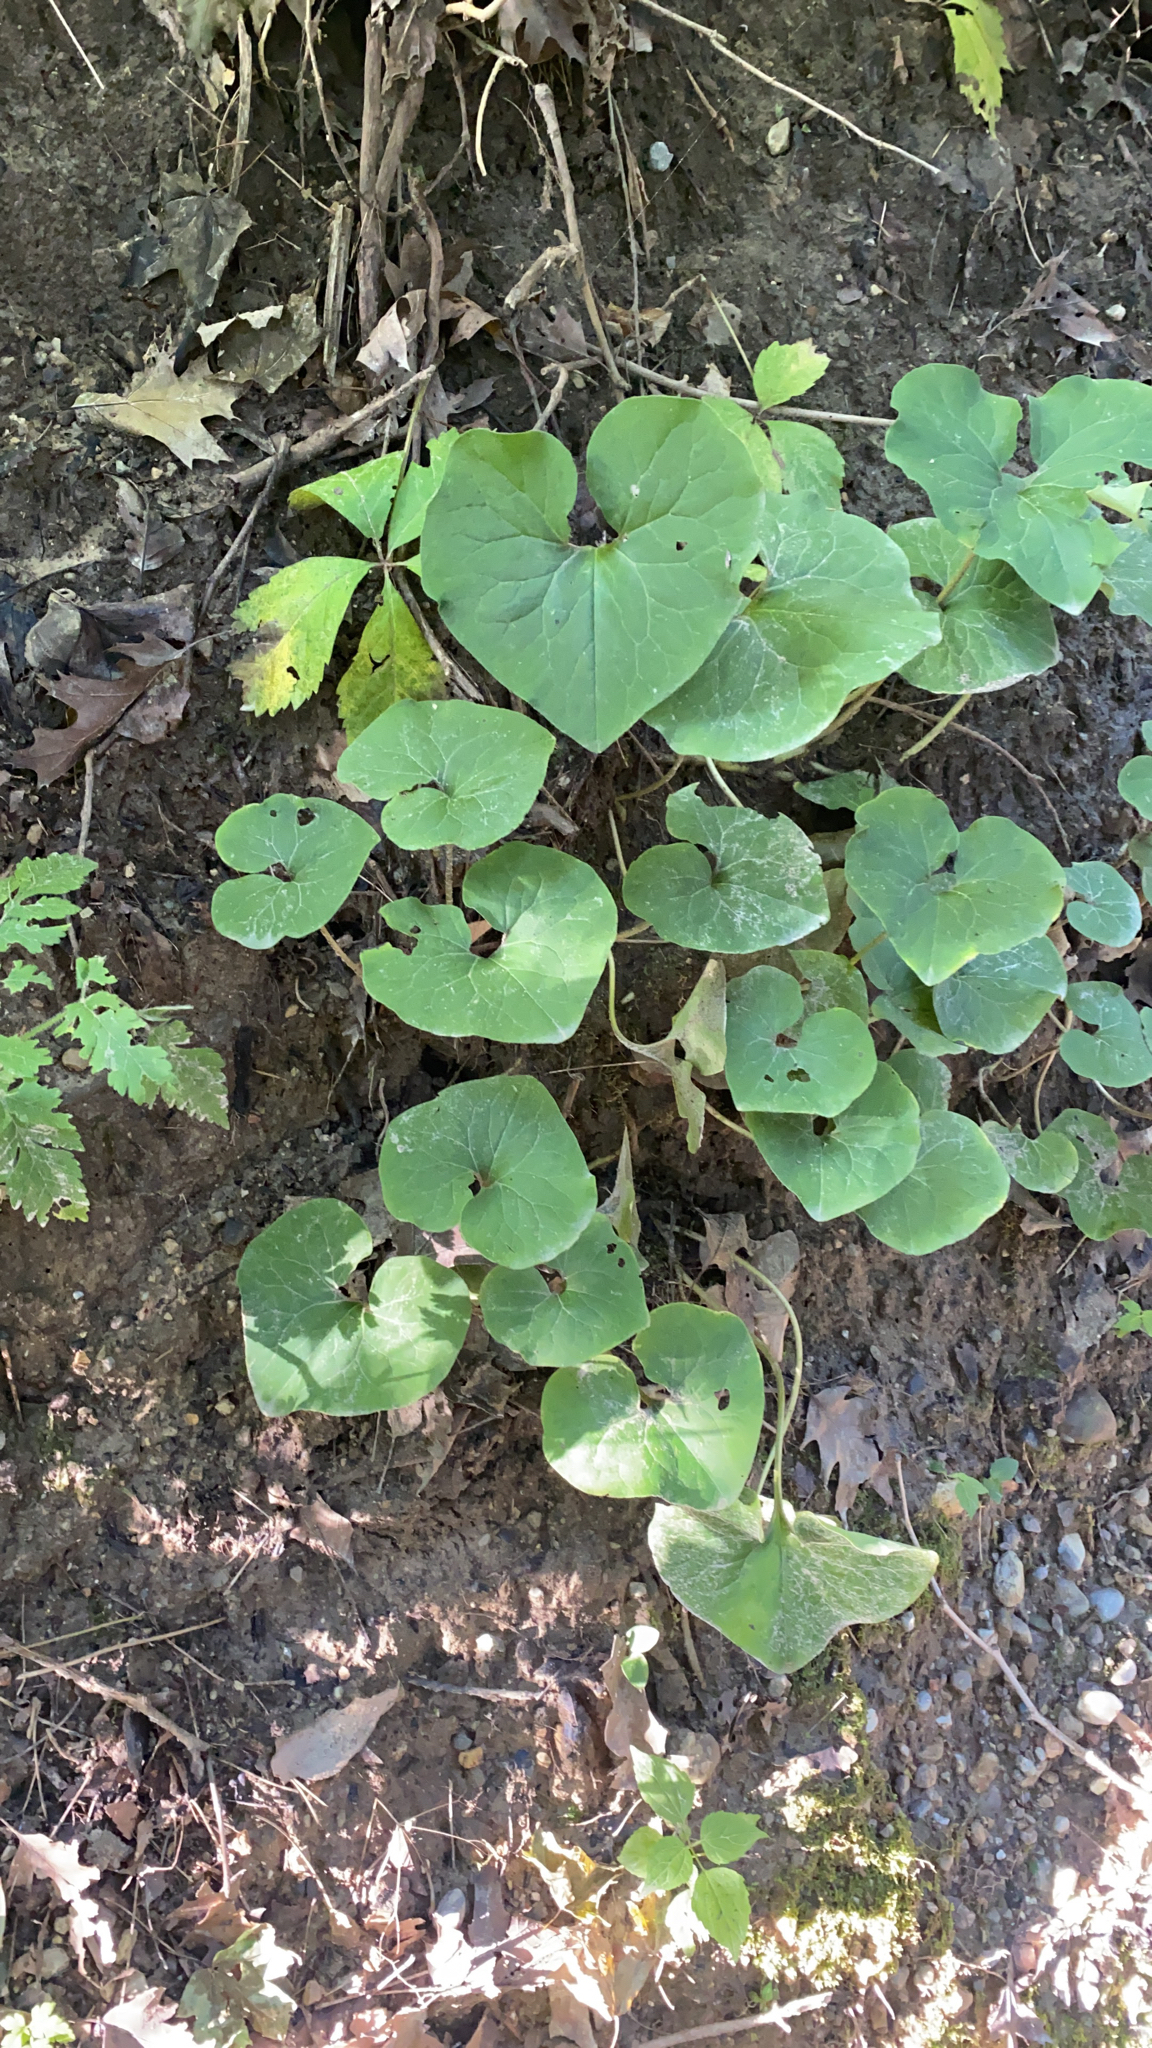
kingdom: Plantae
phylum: Tracheophyta
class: Magnoliopsida
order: Piperales
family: Aristolochiaceae
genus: Asarum
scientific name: Asarum canadense
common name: Wild ginger
